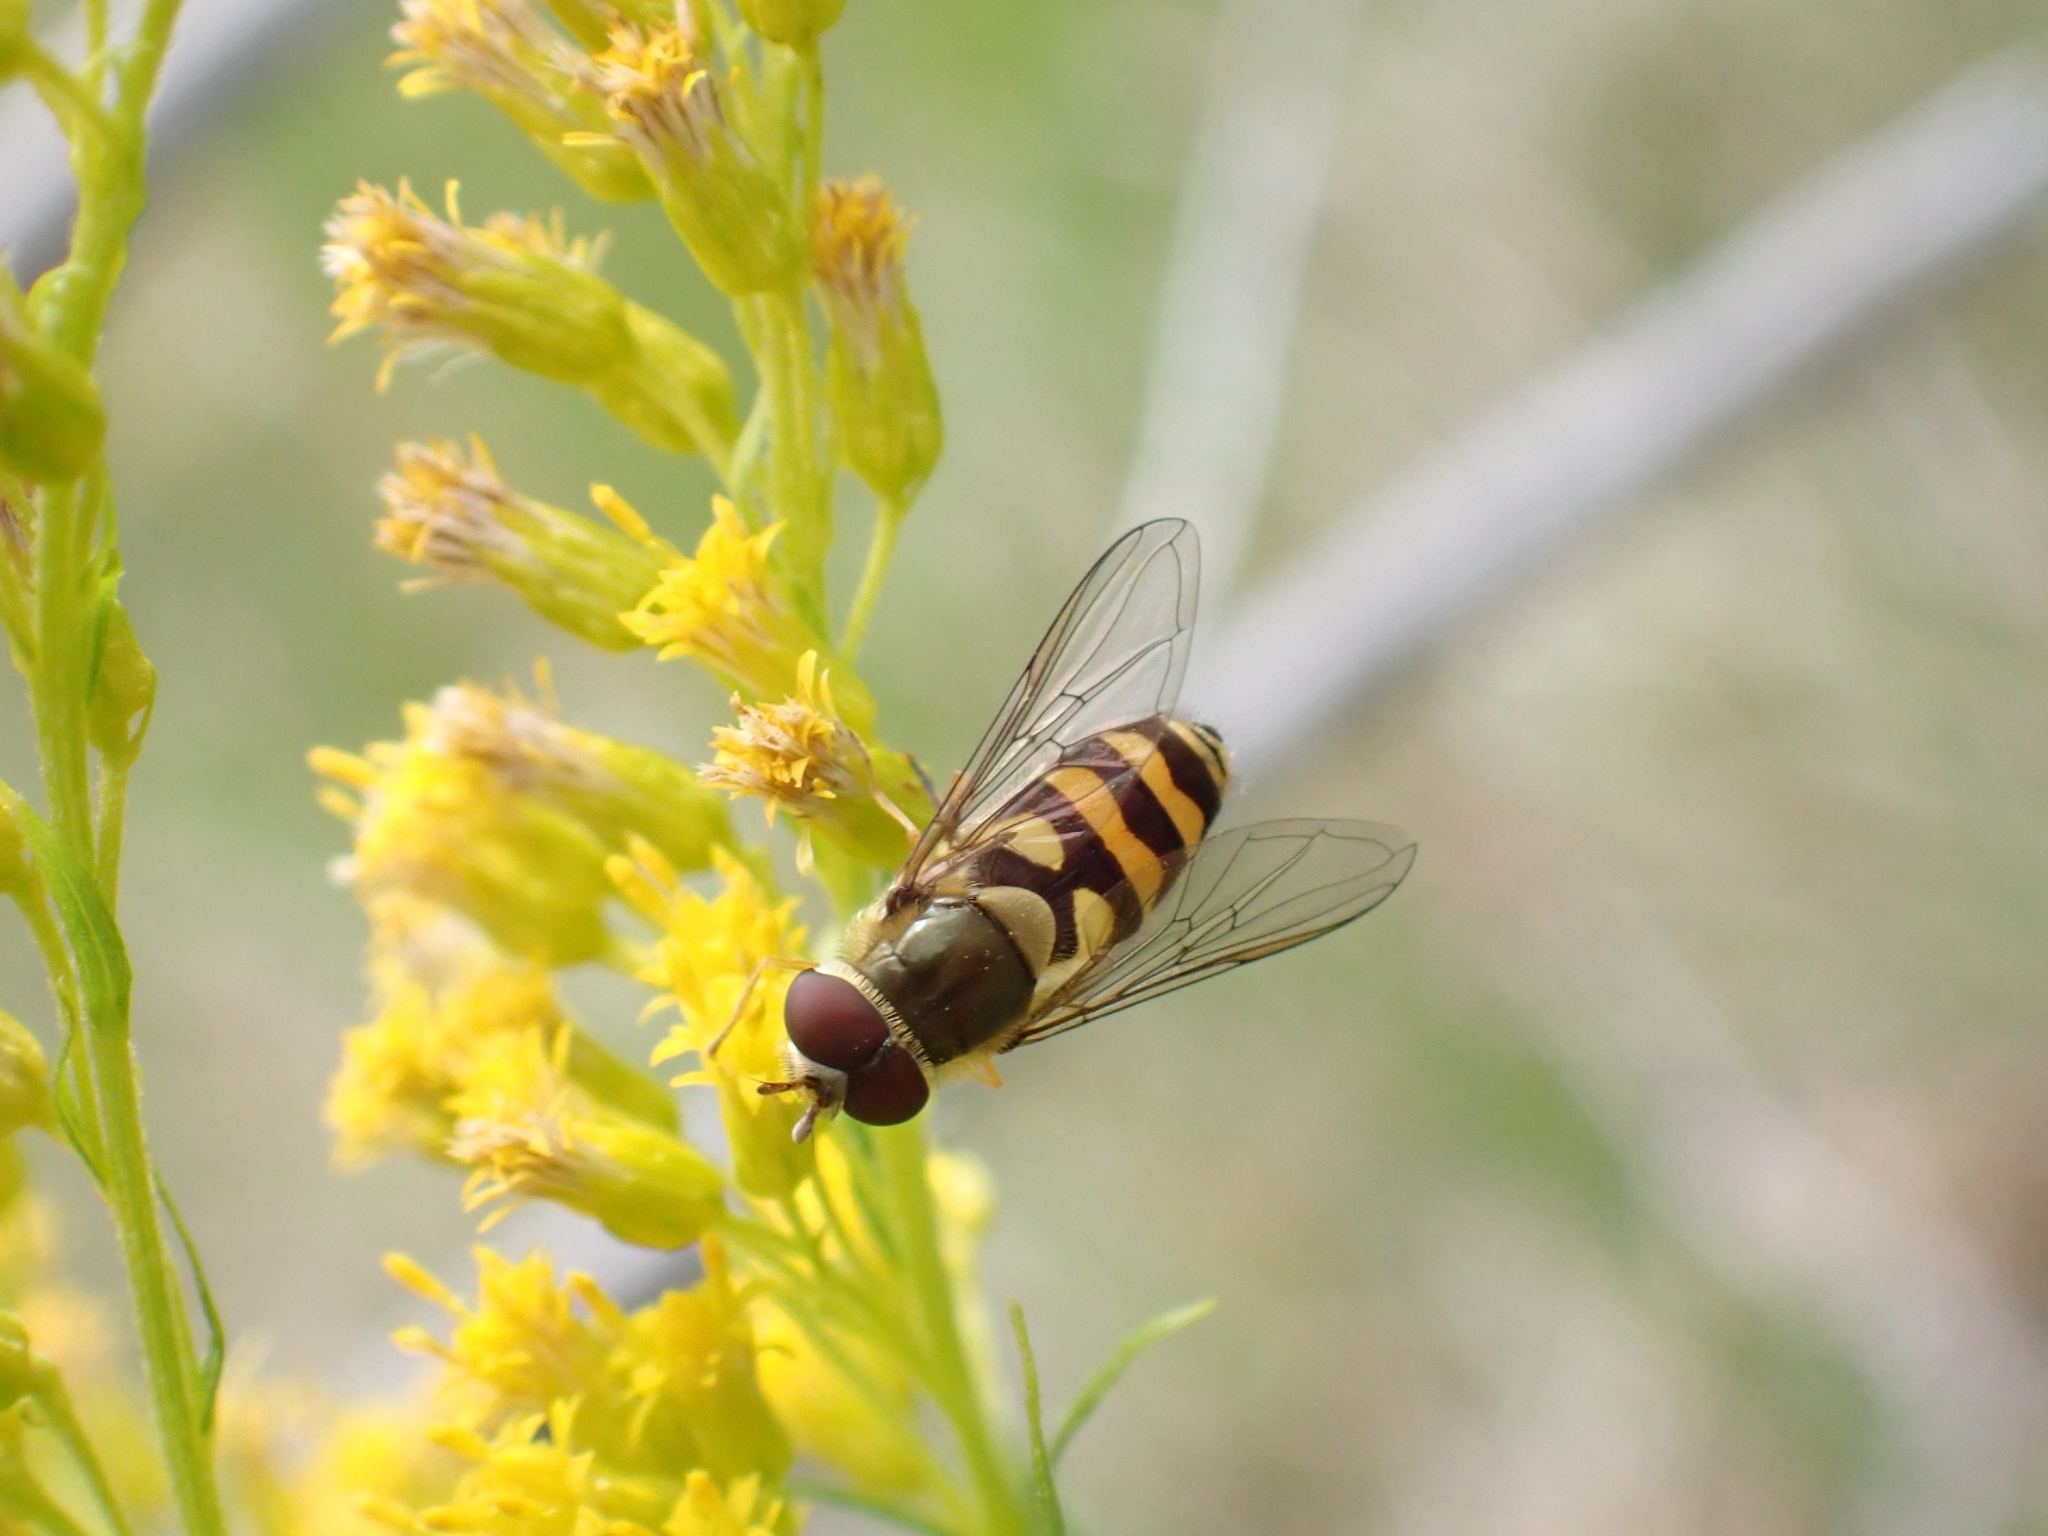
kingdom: Animalia
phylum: Arthropoda
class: Insecta
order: Diptera
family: Syrphidae
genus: Syrphus
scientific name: Syrphus
